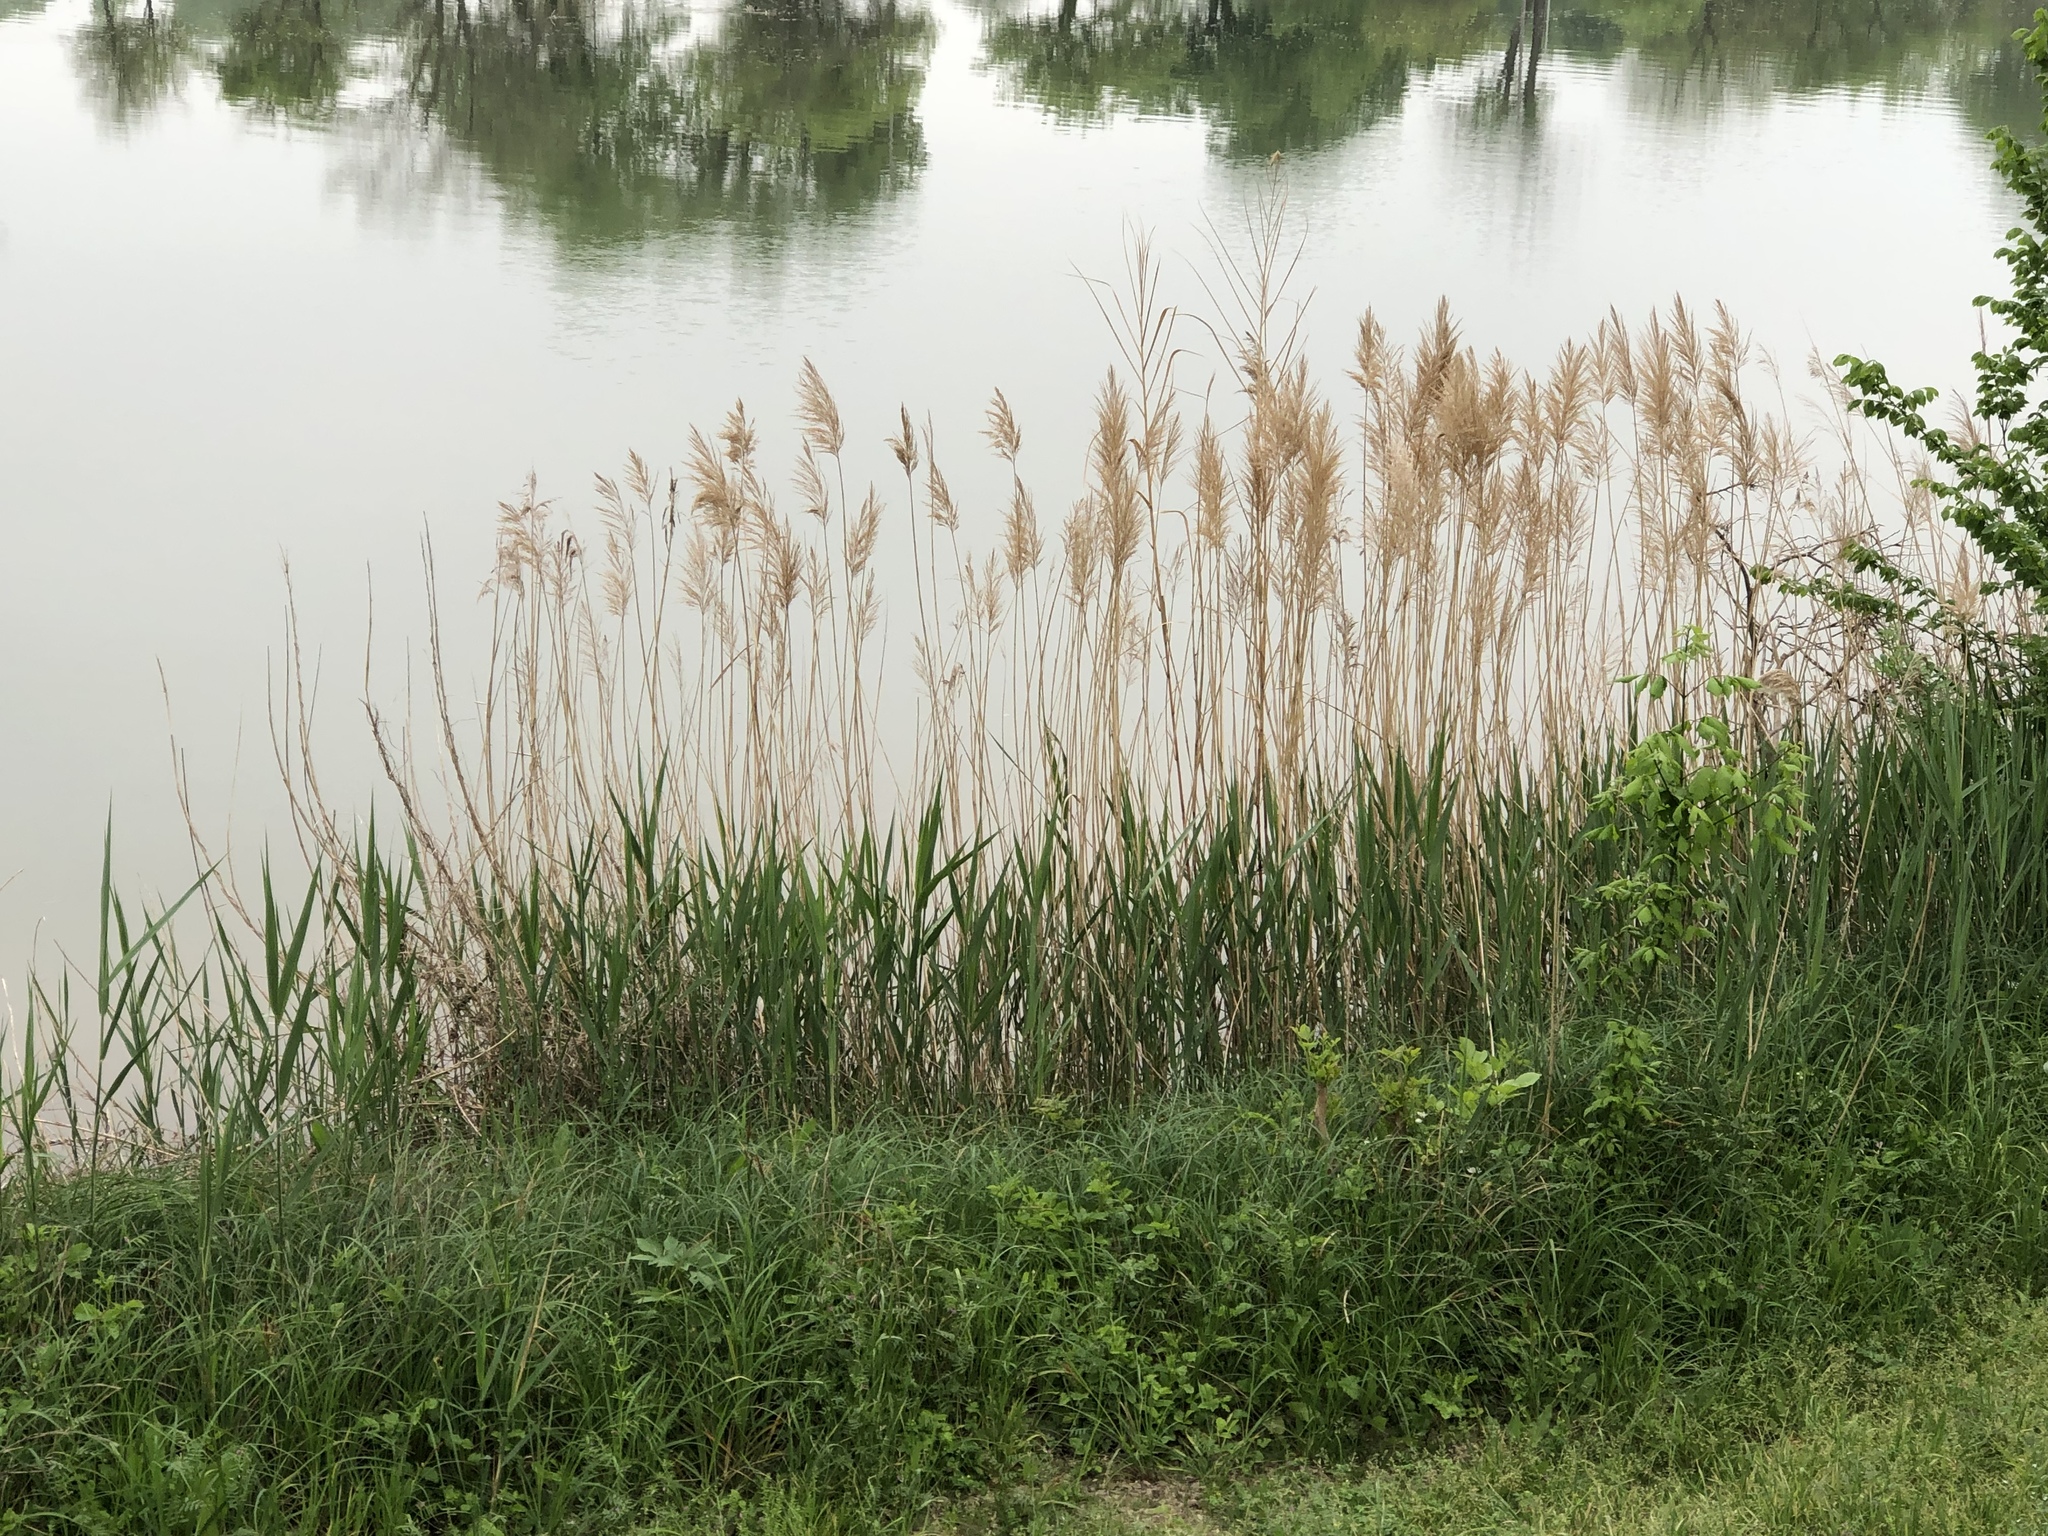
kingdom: Plantae
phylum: Tracheophyta
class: Liliopsida
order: Poales
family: Poaceae
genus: Phragmites
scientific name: Phragmites australis
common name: Common reed
